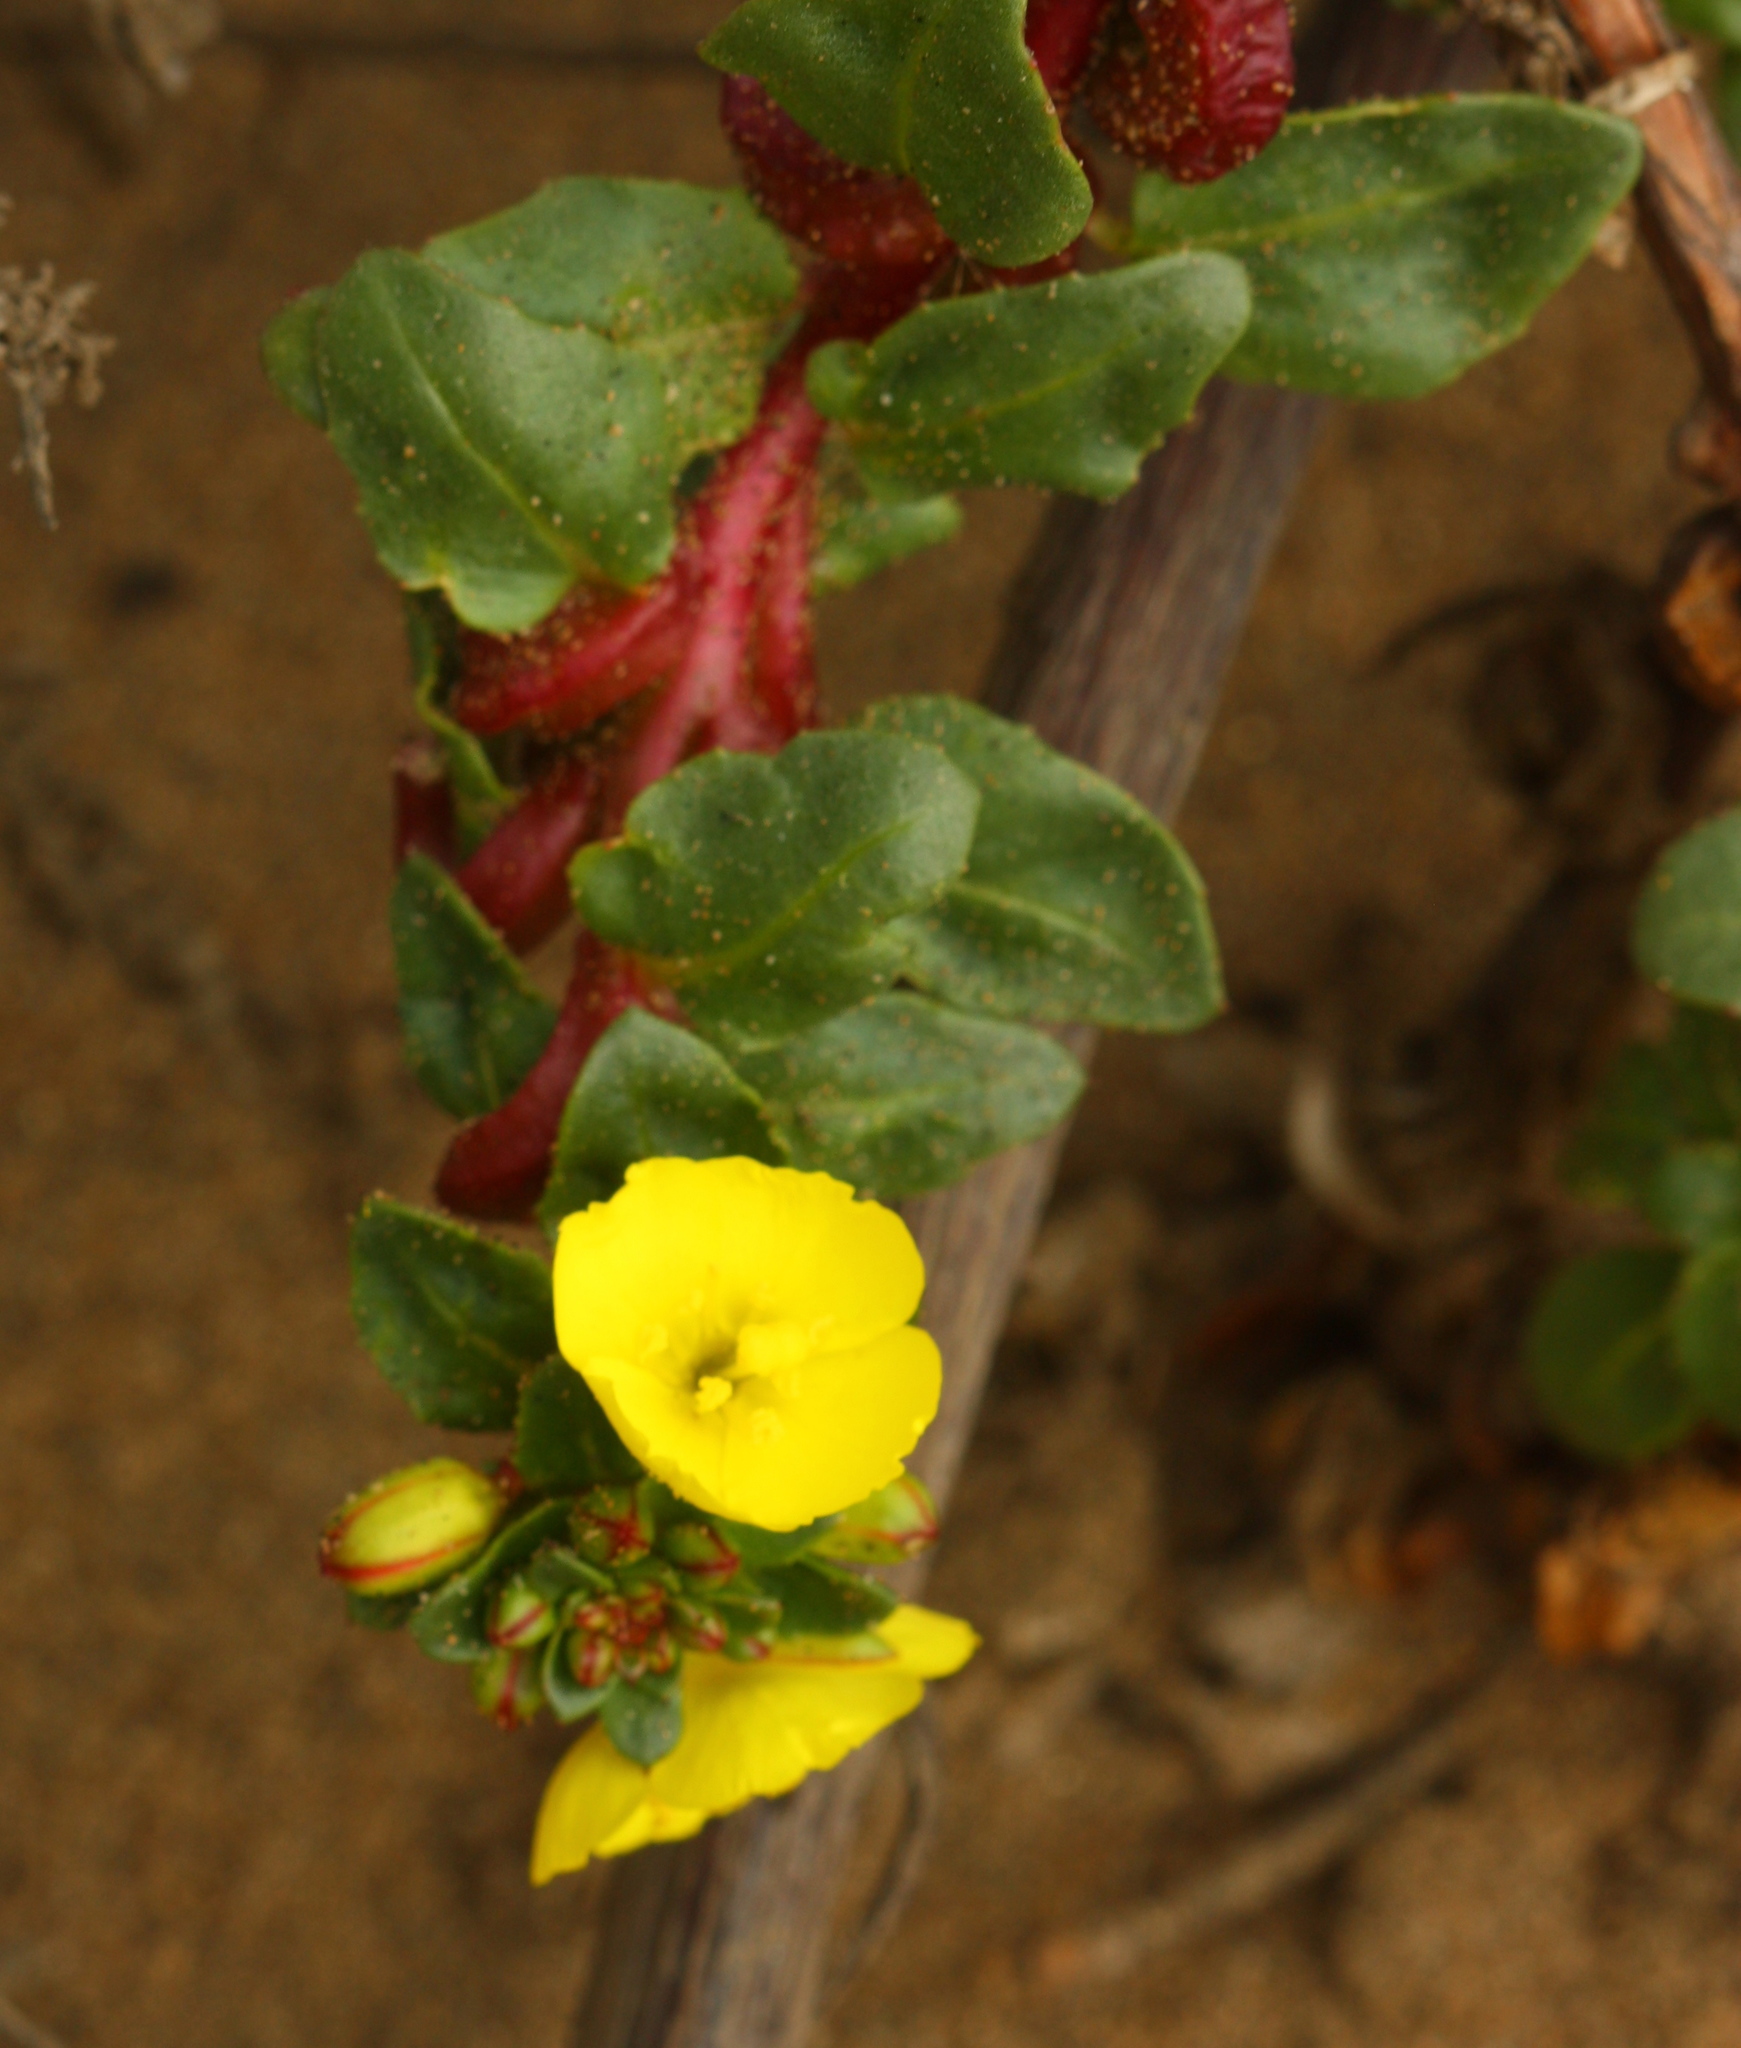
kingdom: Plantae
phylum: Tracheophyta
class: Magnoliopsida
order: Myrtales
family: Onagraceae
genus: Camissoniopsis
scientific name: Camissoniopsis cheiranthifolia
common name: Beach suncup
